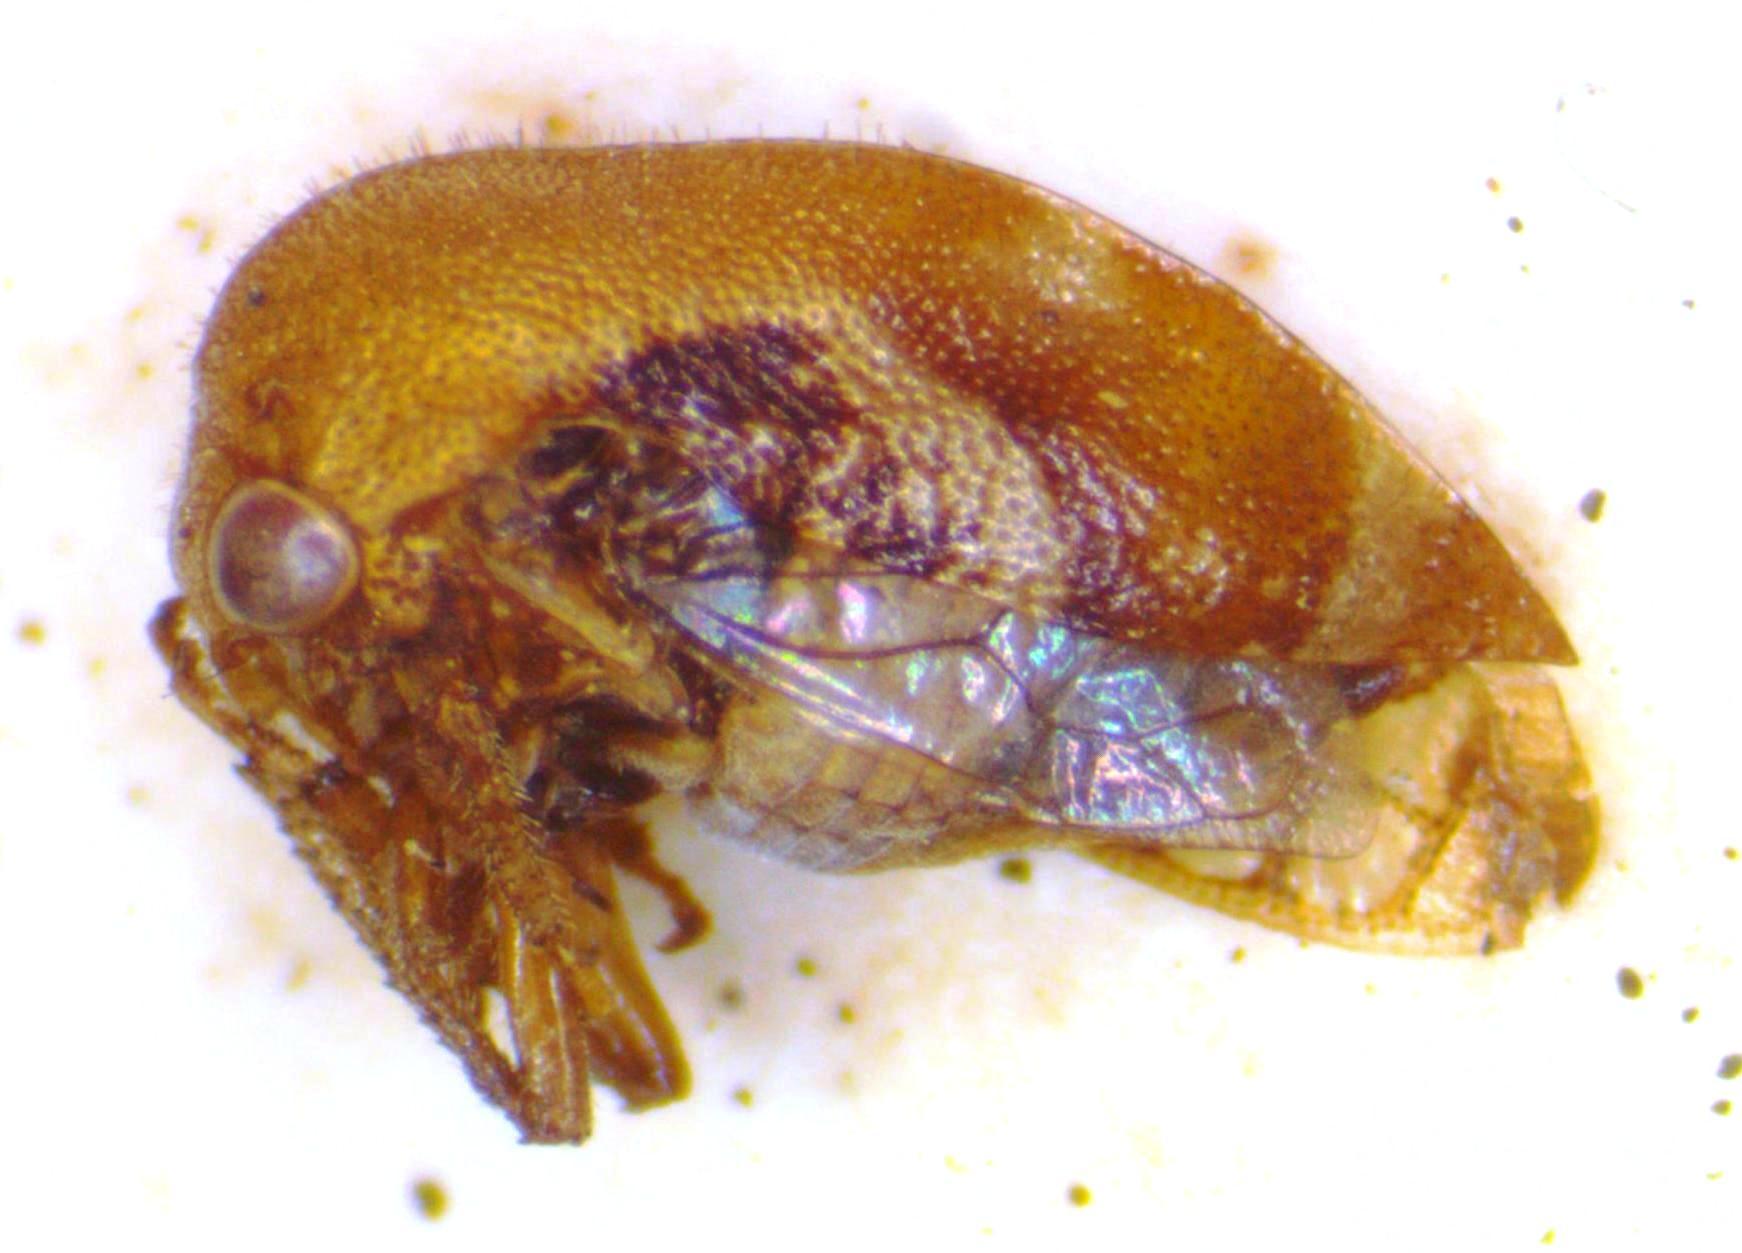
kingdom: Animalia
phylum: Arthropoda
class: Insecta
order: Hemiptera
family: Membracidae
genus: Vanduzea
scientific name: Vanduzea segmentata
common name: Membracid bug
